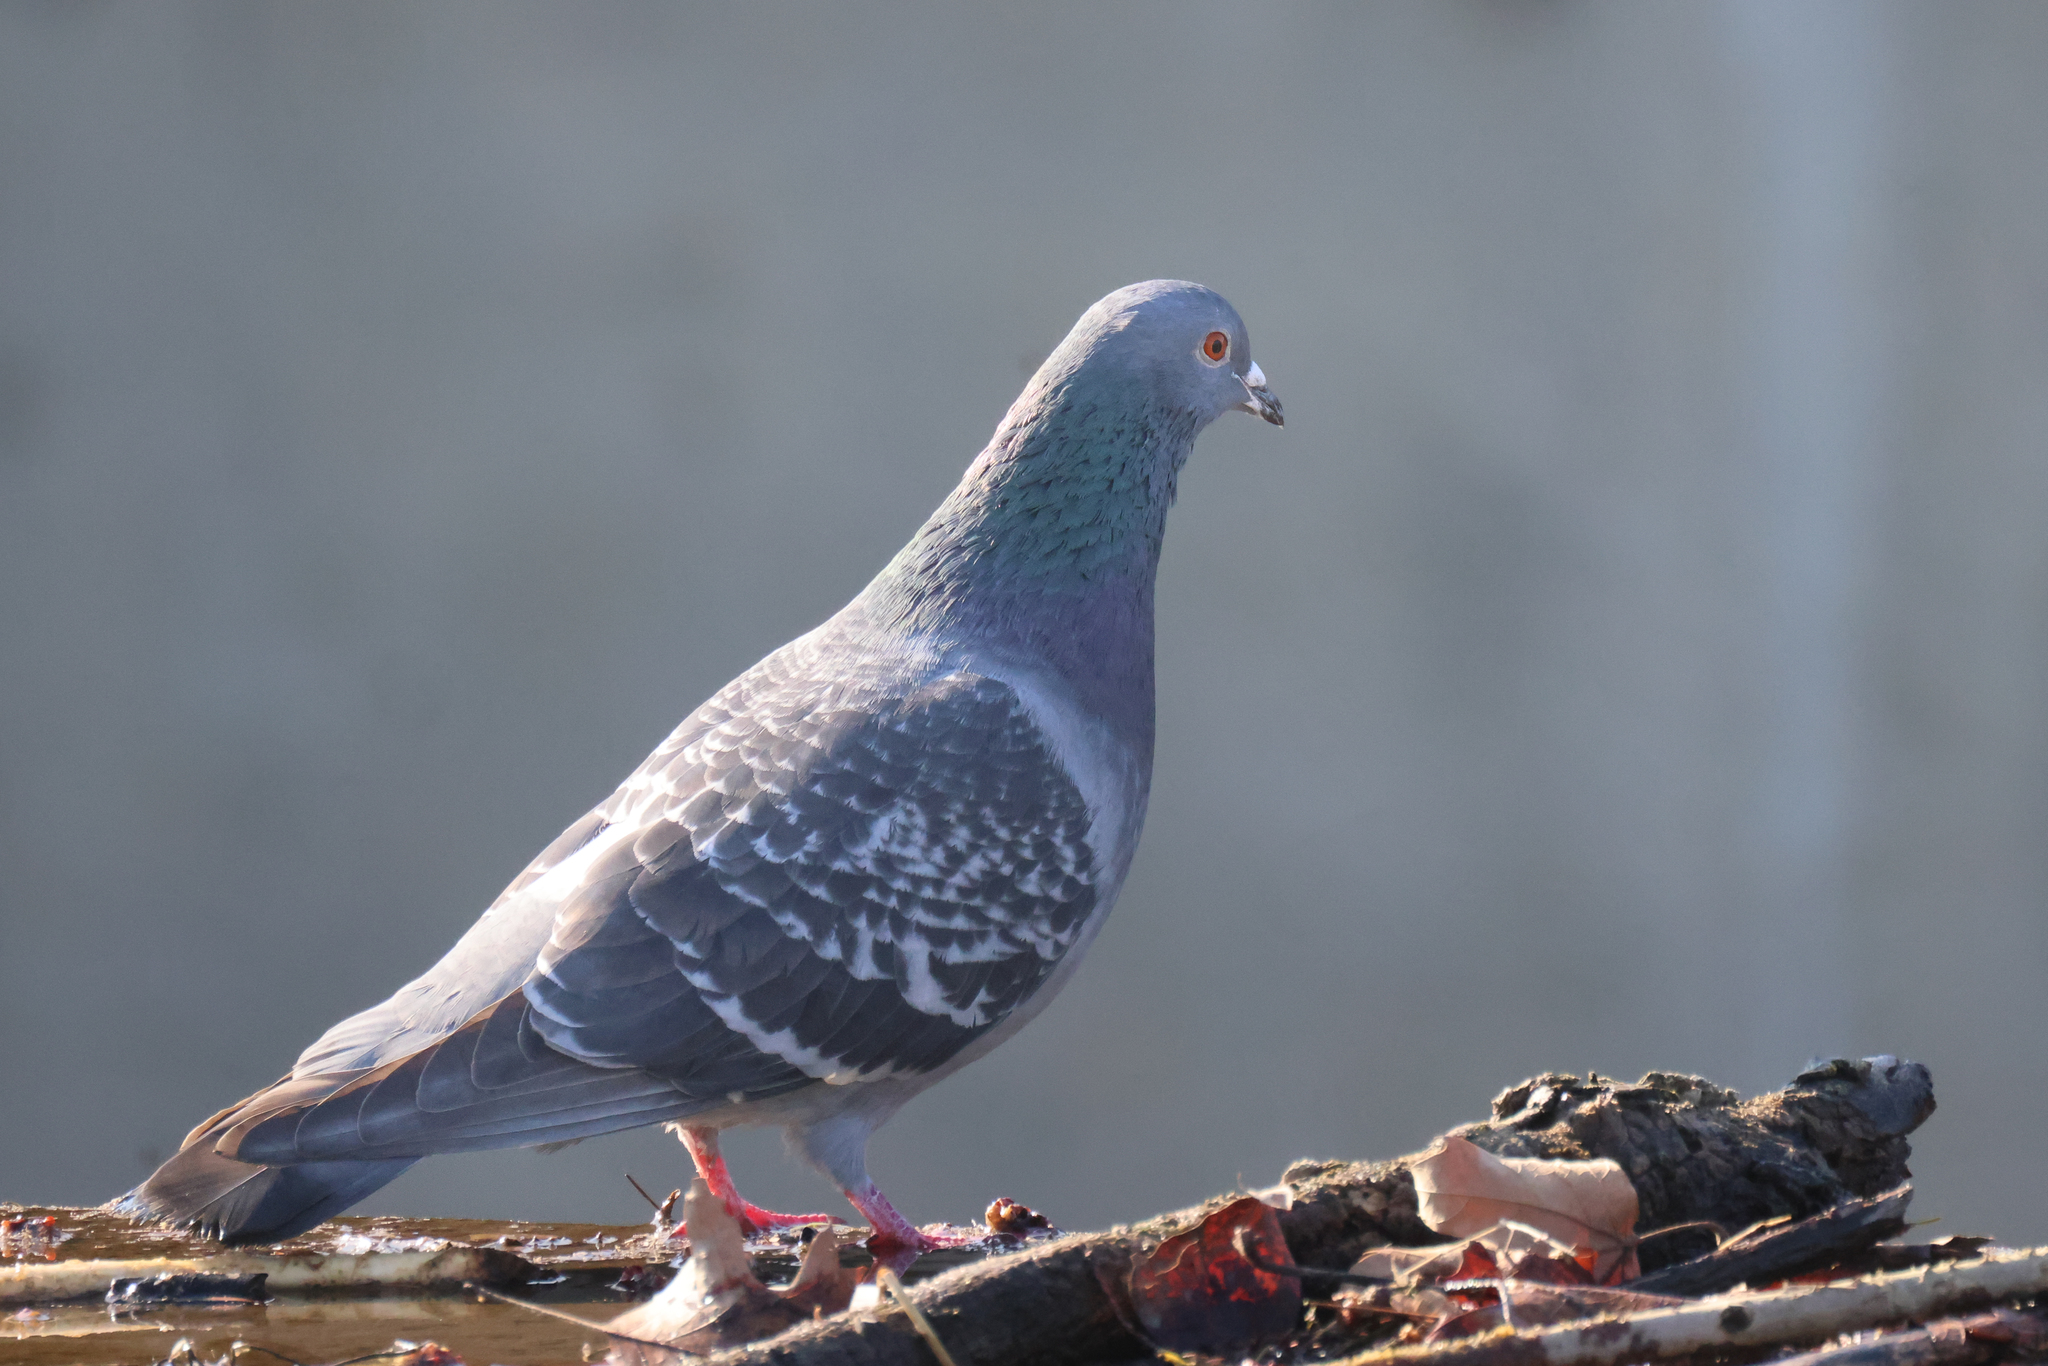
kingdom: Animalia
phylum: Chordata
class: Aves
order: Columbiformes
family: Columbidae
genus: Columba
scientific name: Columba livia
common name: Rock pigeon
